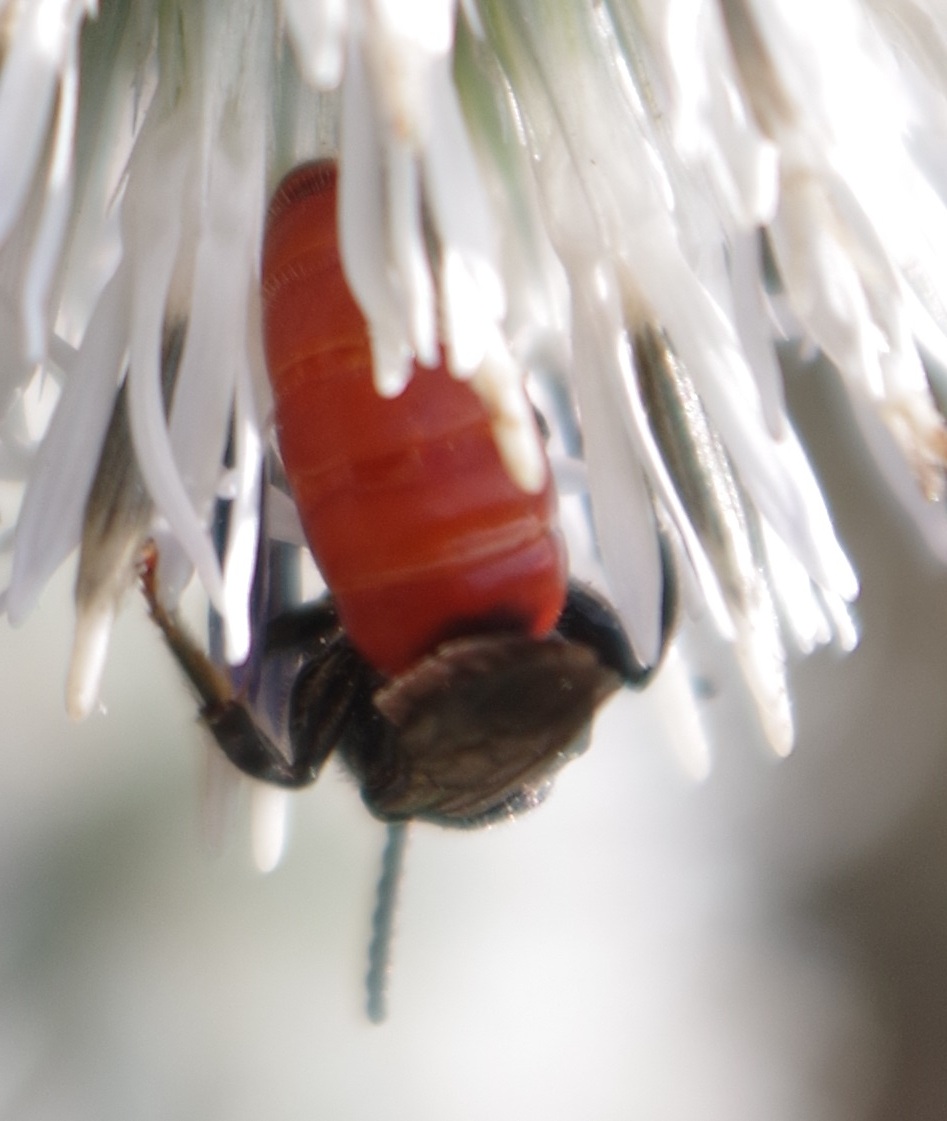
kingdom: Animalia
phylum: Arthropoda
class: Insecta
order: Hymenoptera
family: Halictidae
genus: Sphecodes
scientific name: Sphecodes albilabris
